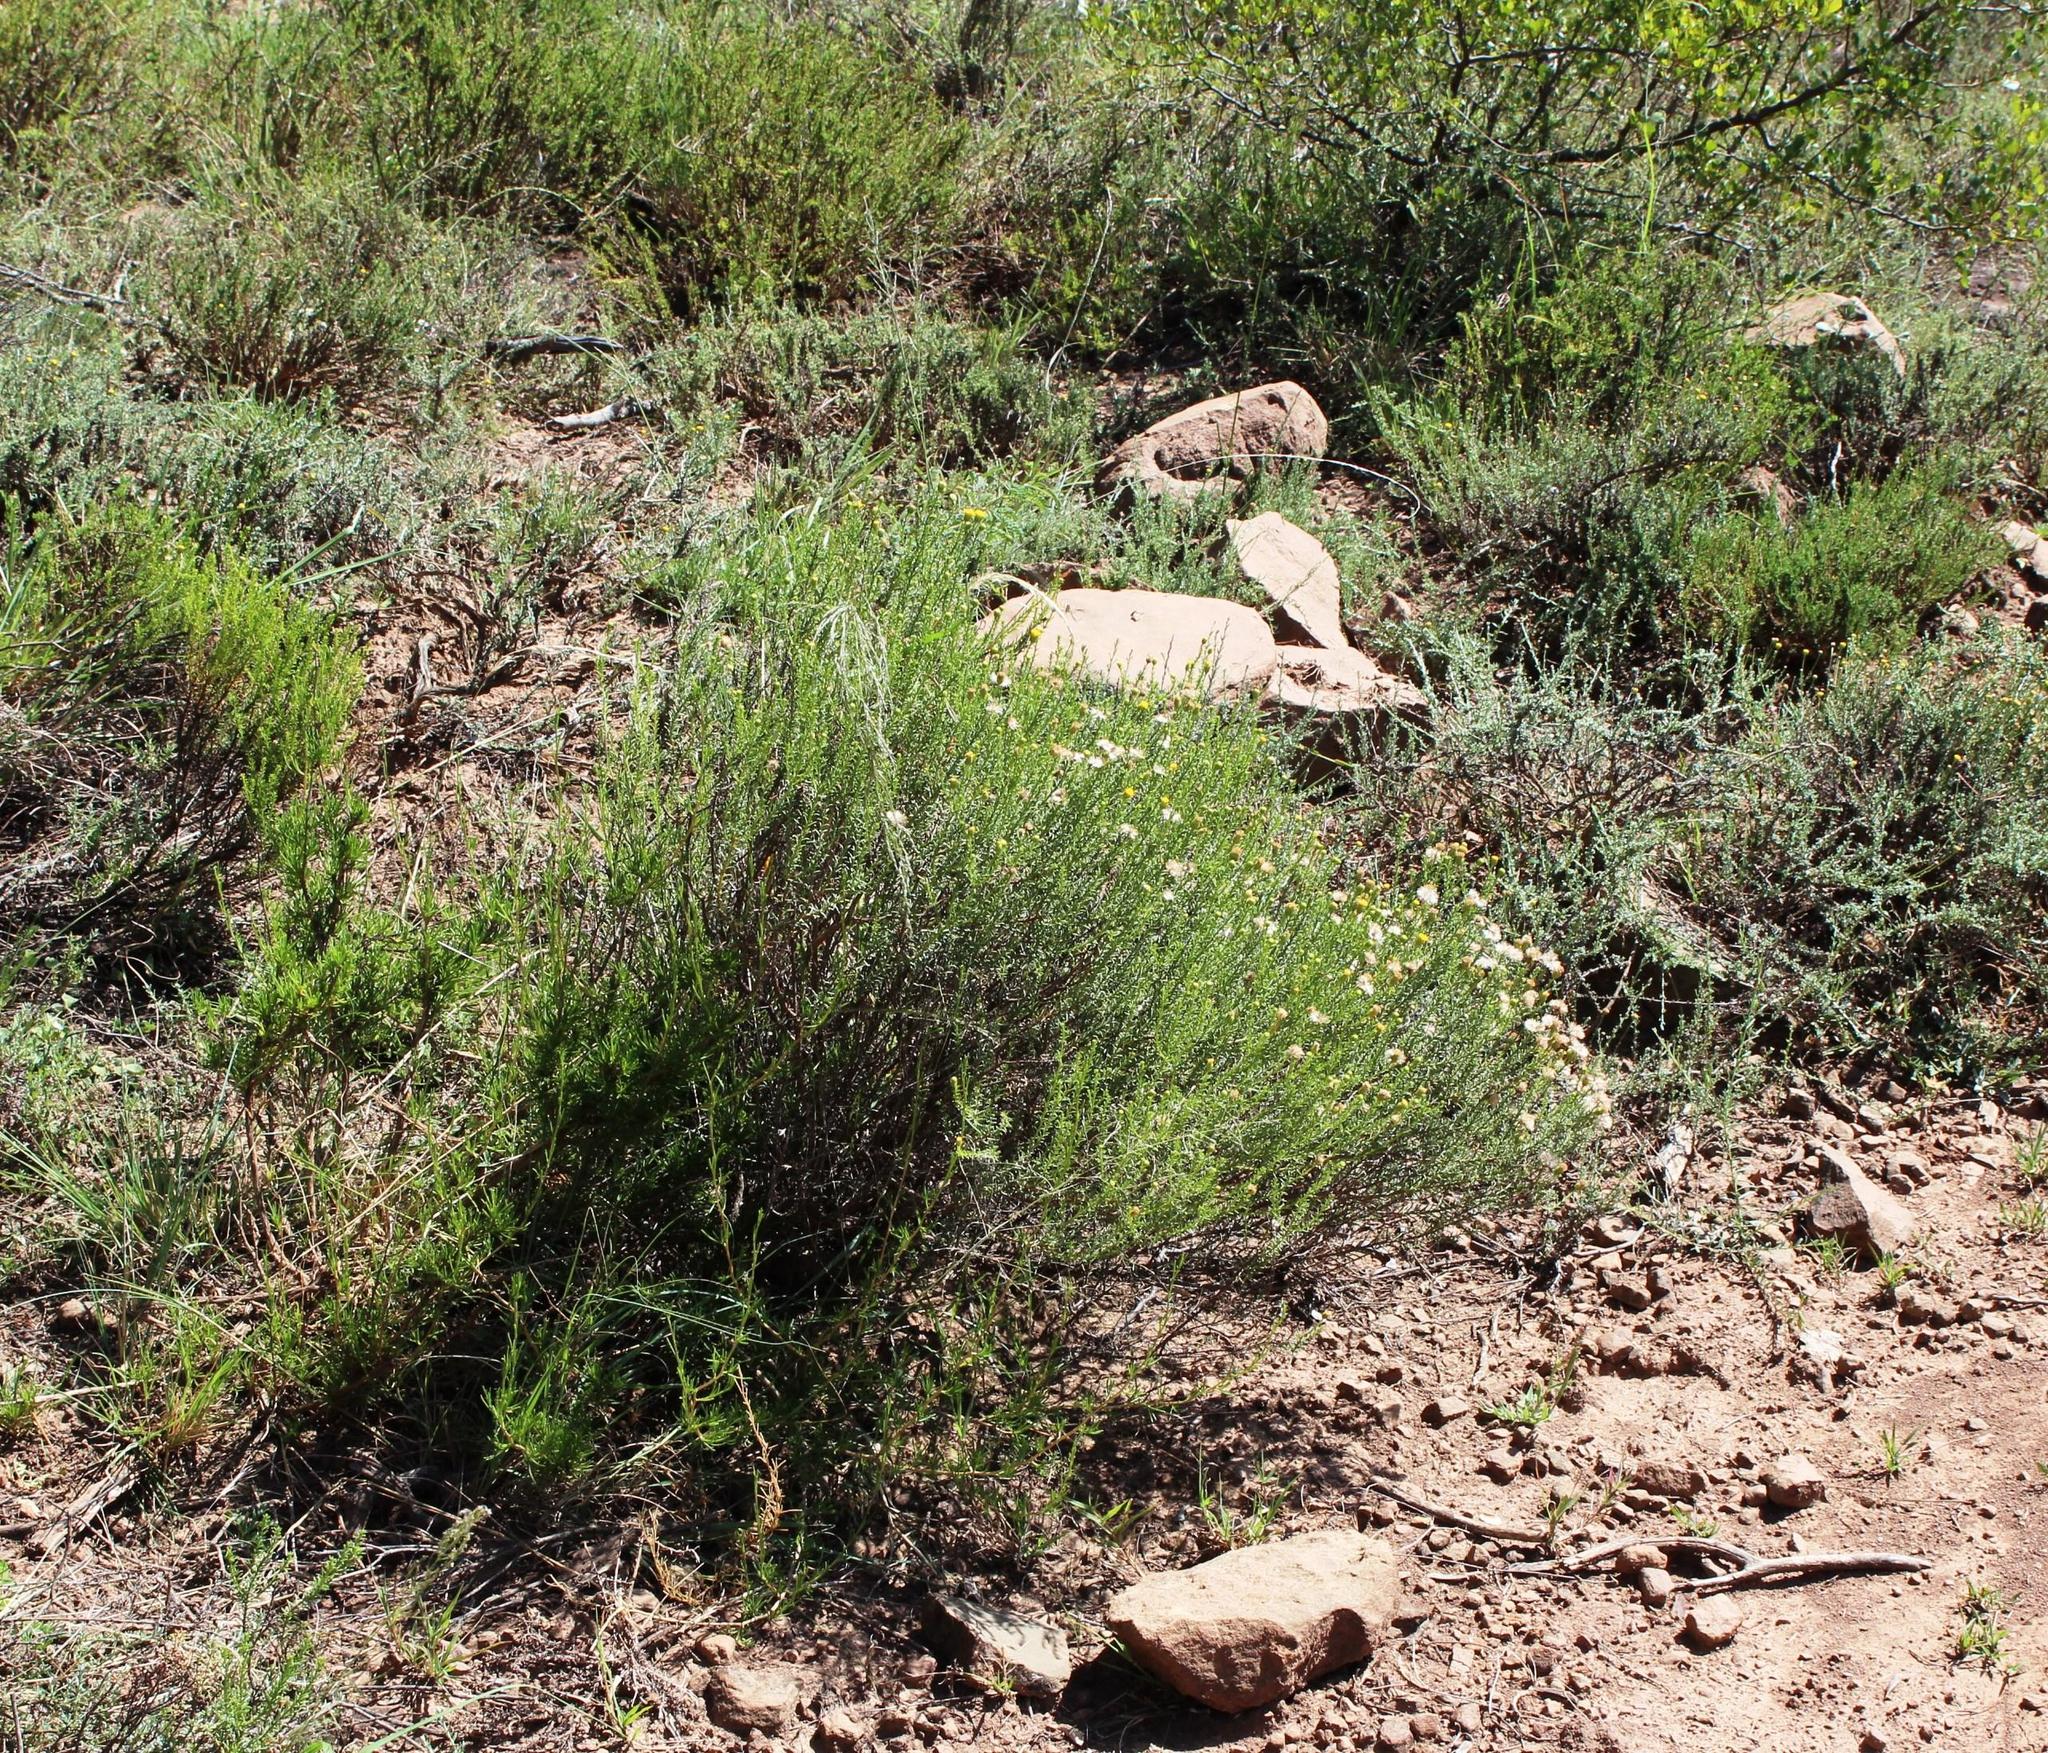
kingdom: Plantae
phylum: Tracheophyta
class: Magnoliopsida
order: Asterales
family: Asteraceae
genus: Chrysocoma
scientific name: Chrysocoma ciliata
